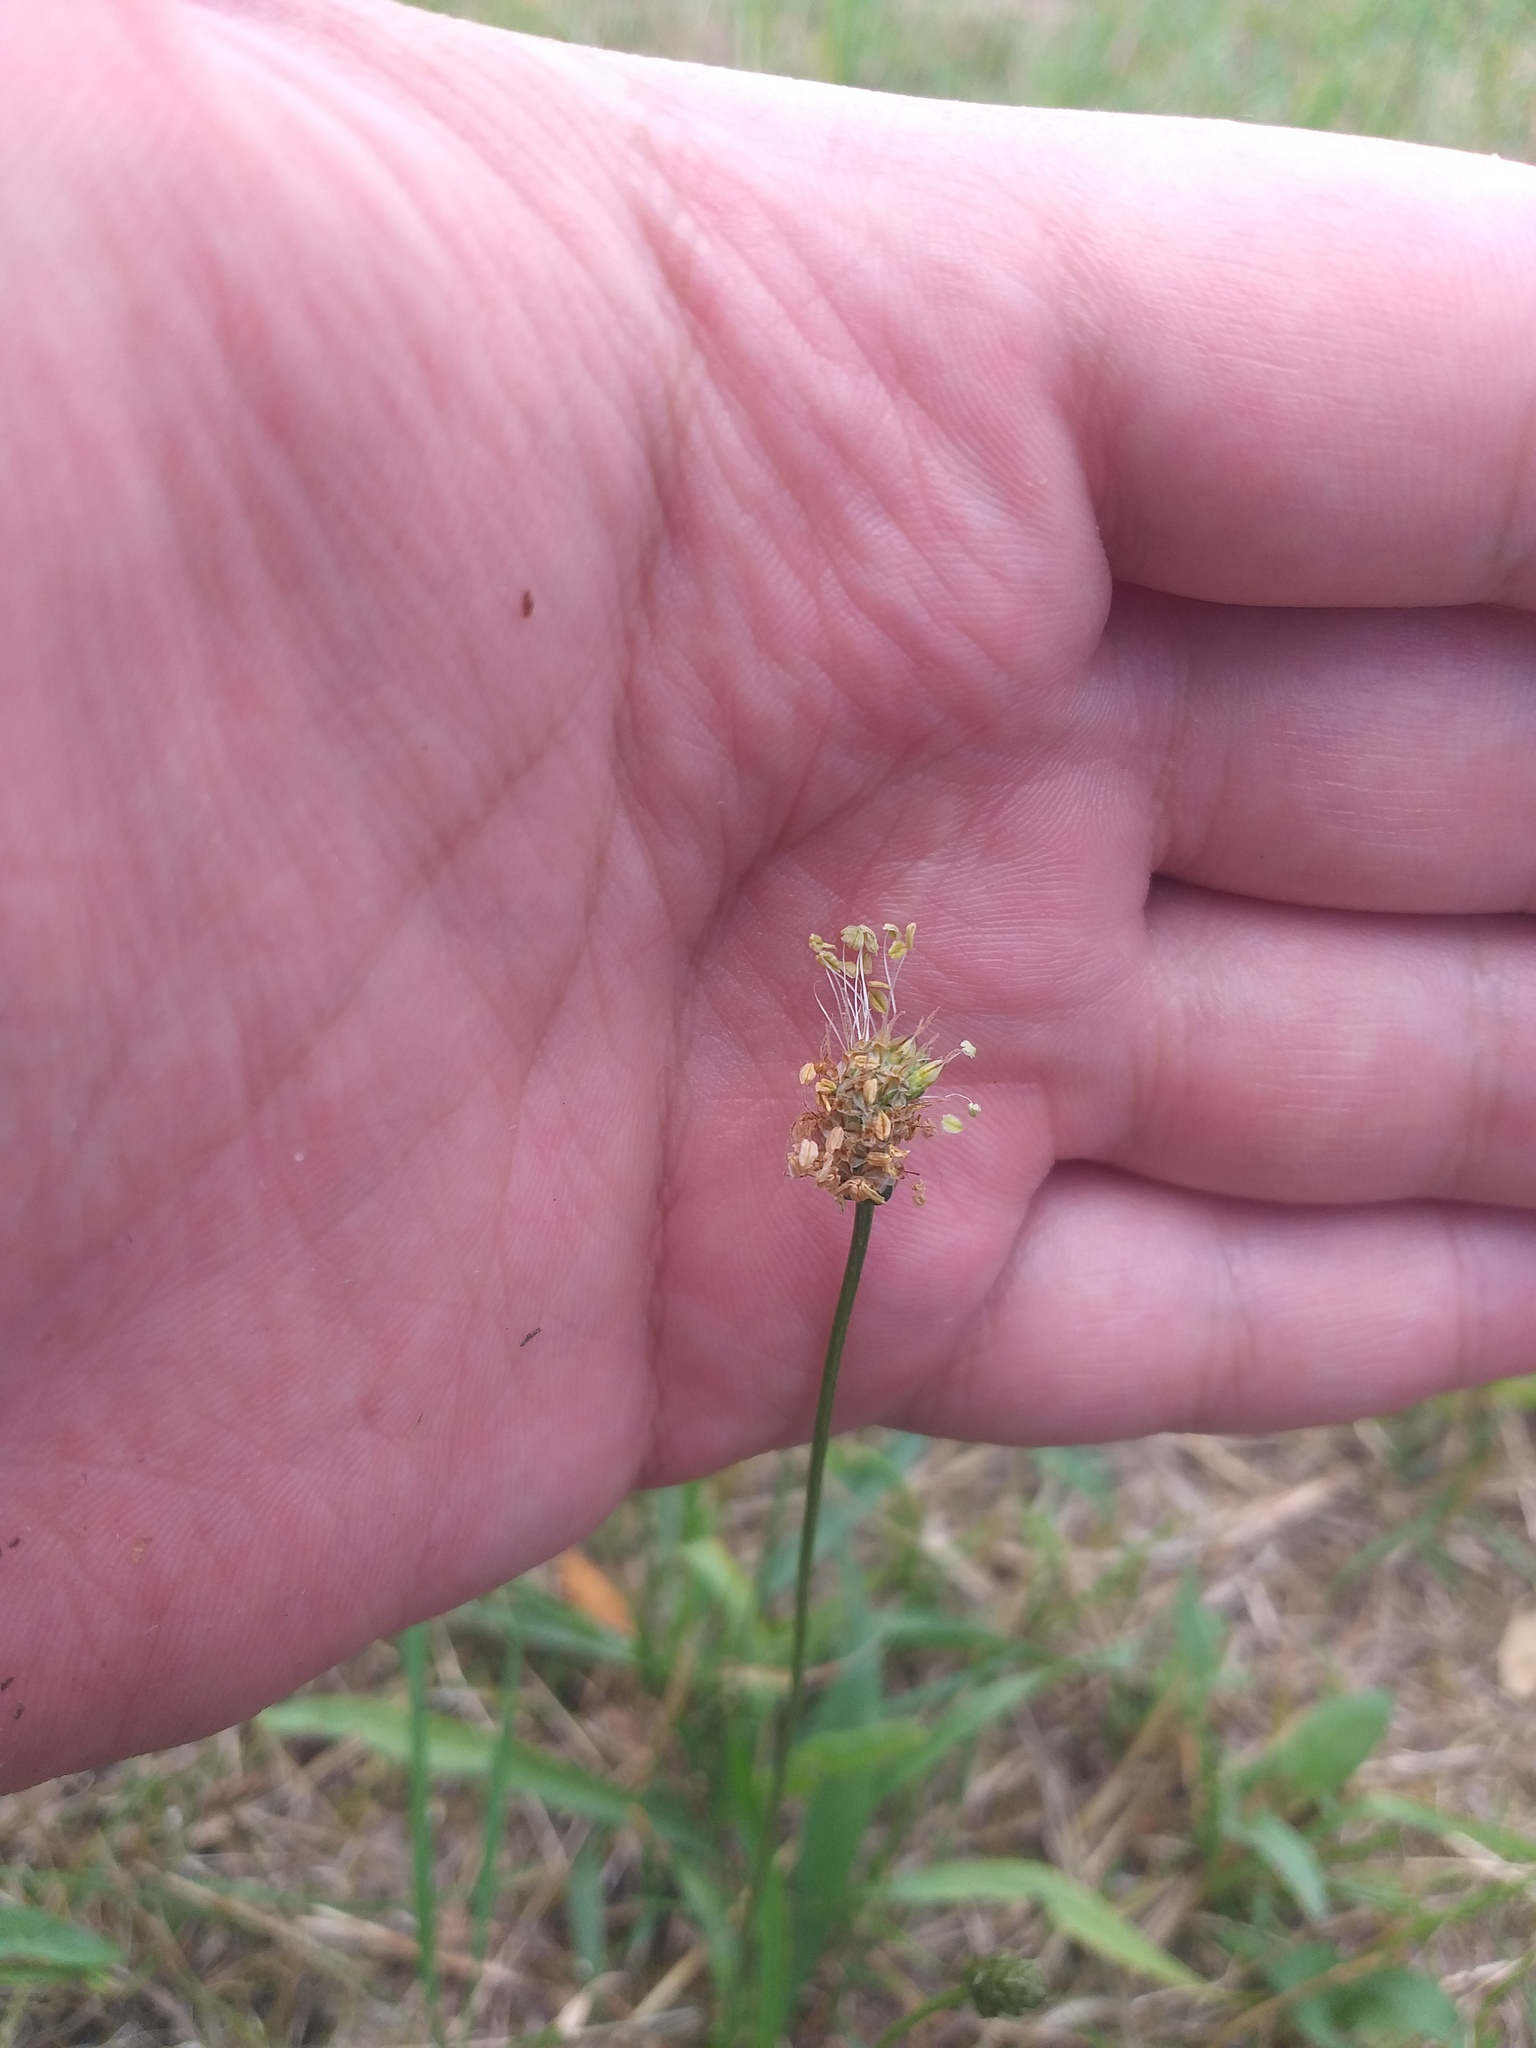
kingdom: Plantae
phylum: Tracheophyta
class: Magnoliopsida
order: Lamiales
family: Plantaginaceae
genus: Plantago
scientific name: Plantago lanceolata
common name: Ribwort plantain
